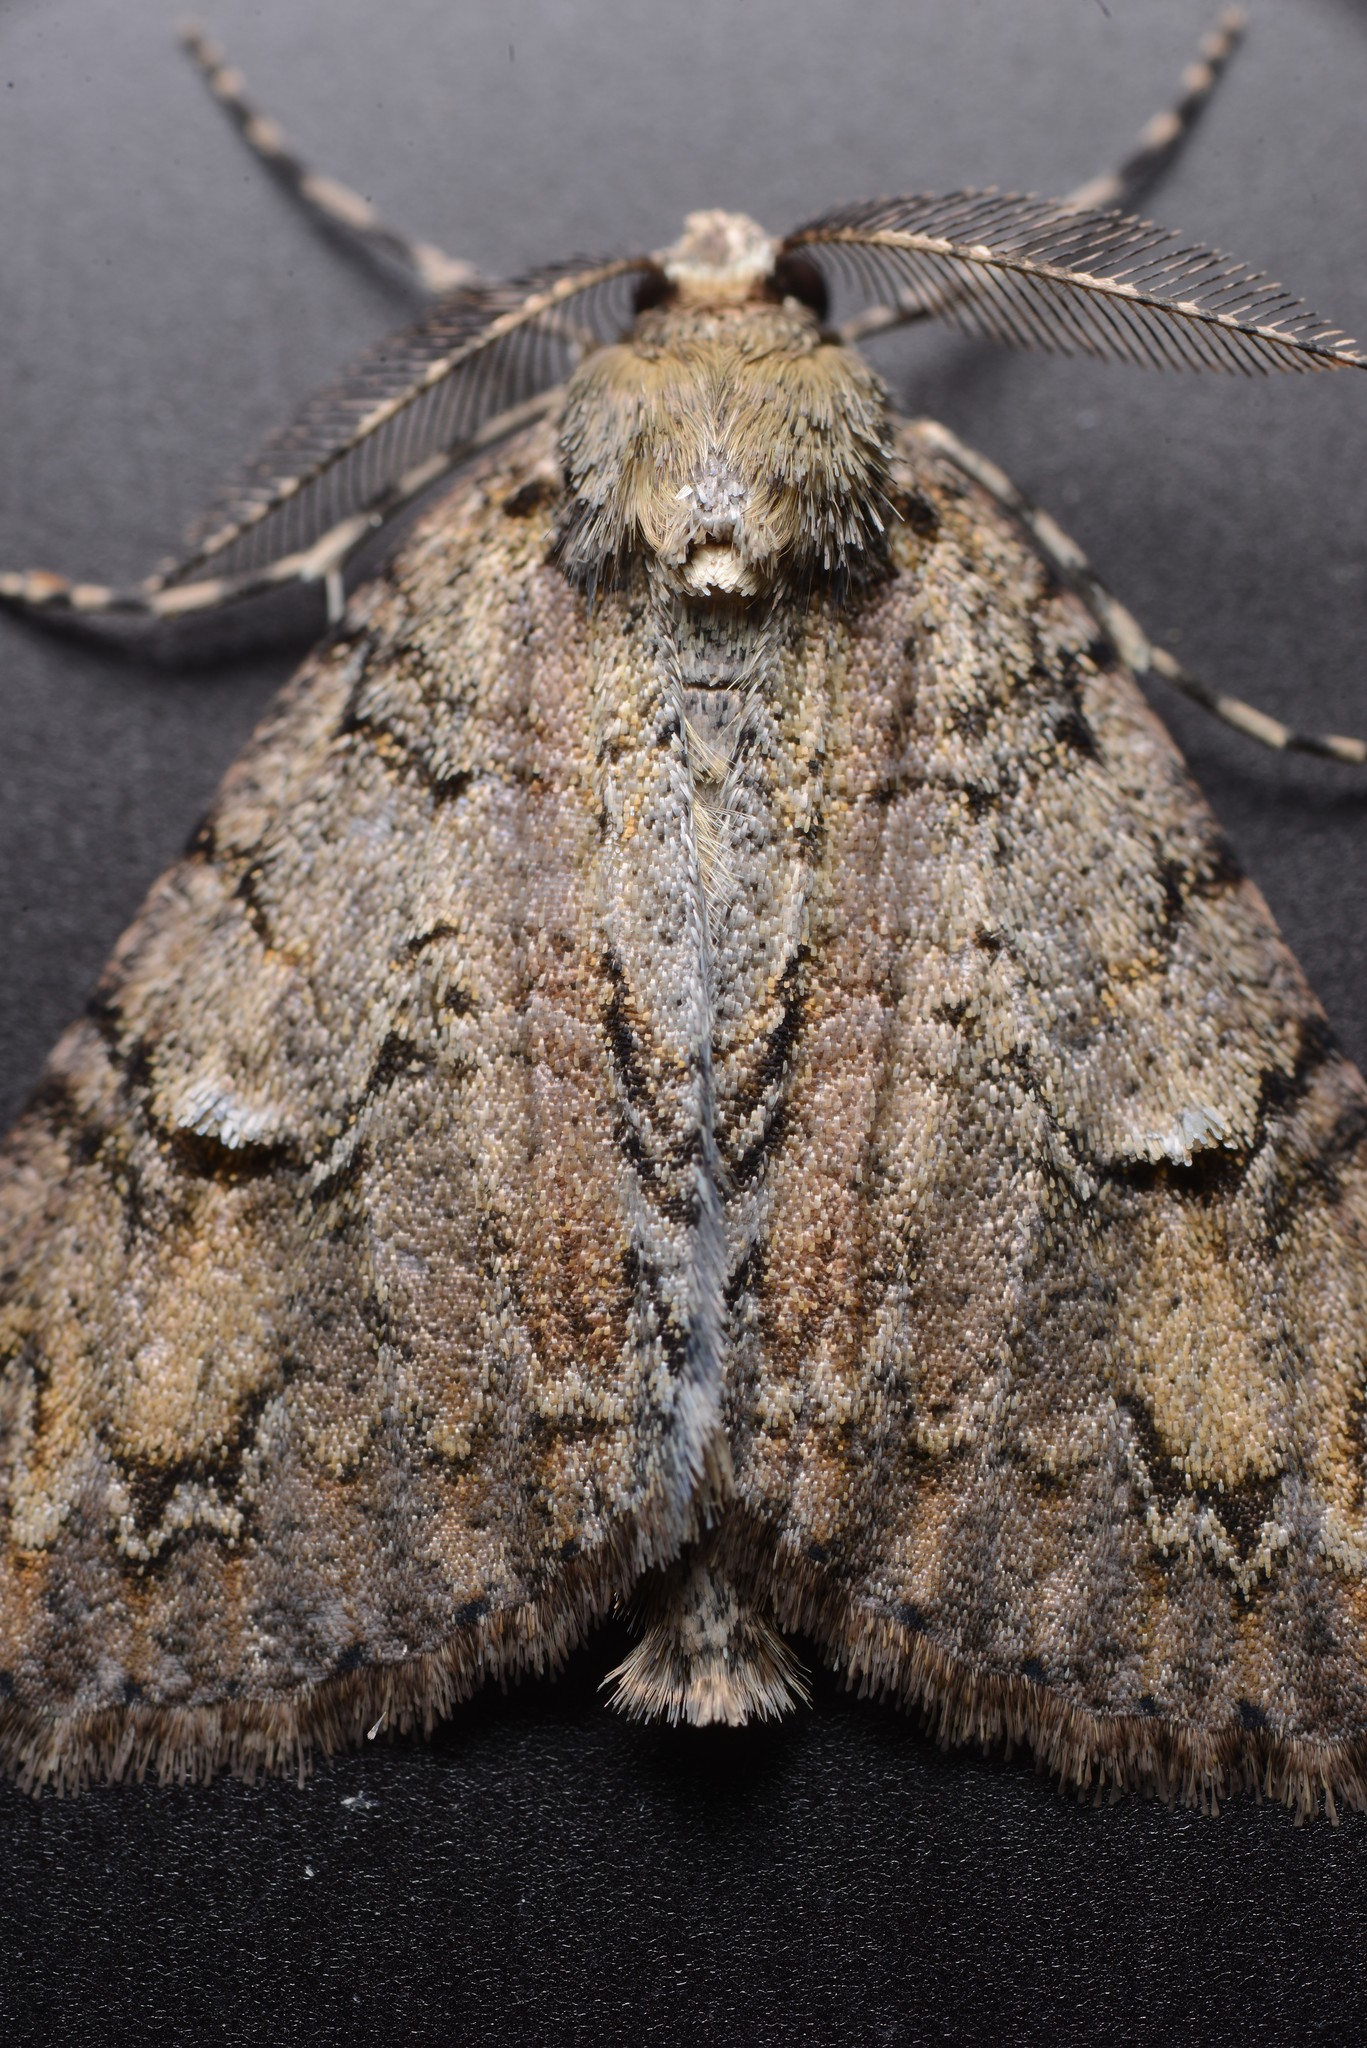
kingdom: Animalia
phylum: Arthropoda
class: Insecta
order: Lepidoptera
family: Geometridae
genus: Pseudocoremia
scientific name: Pseudocoremia suavis
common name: Common forest looper
